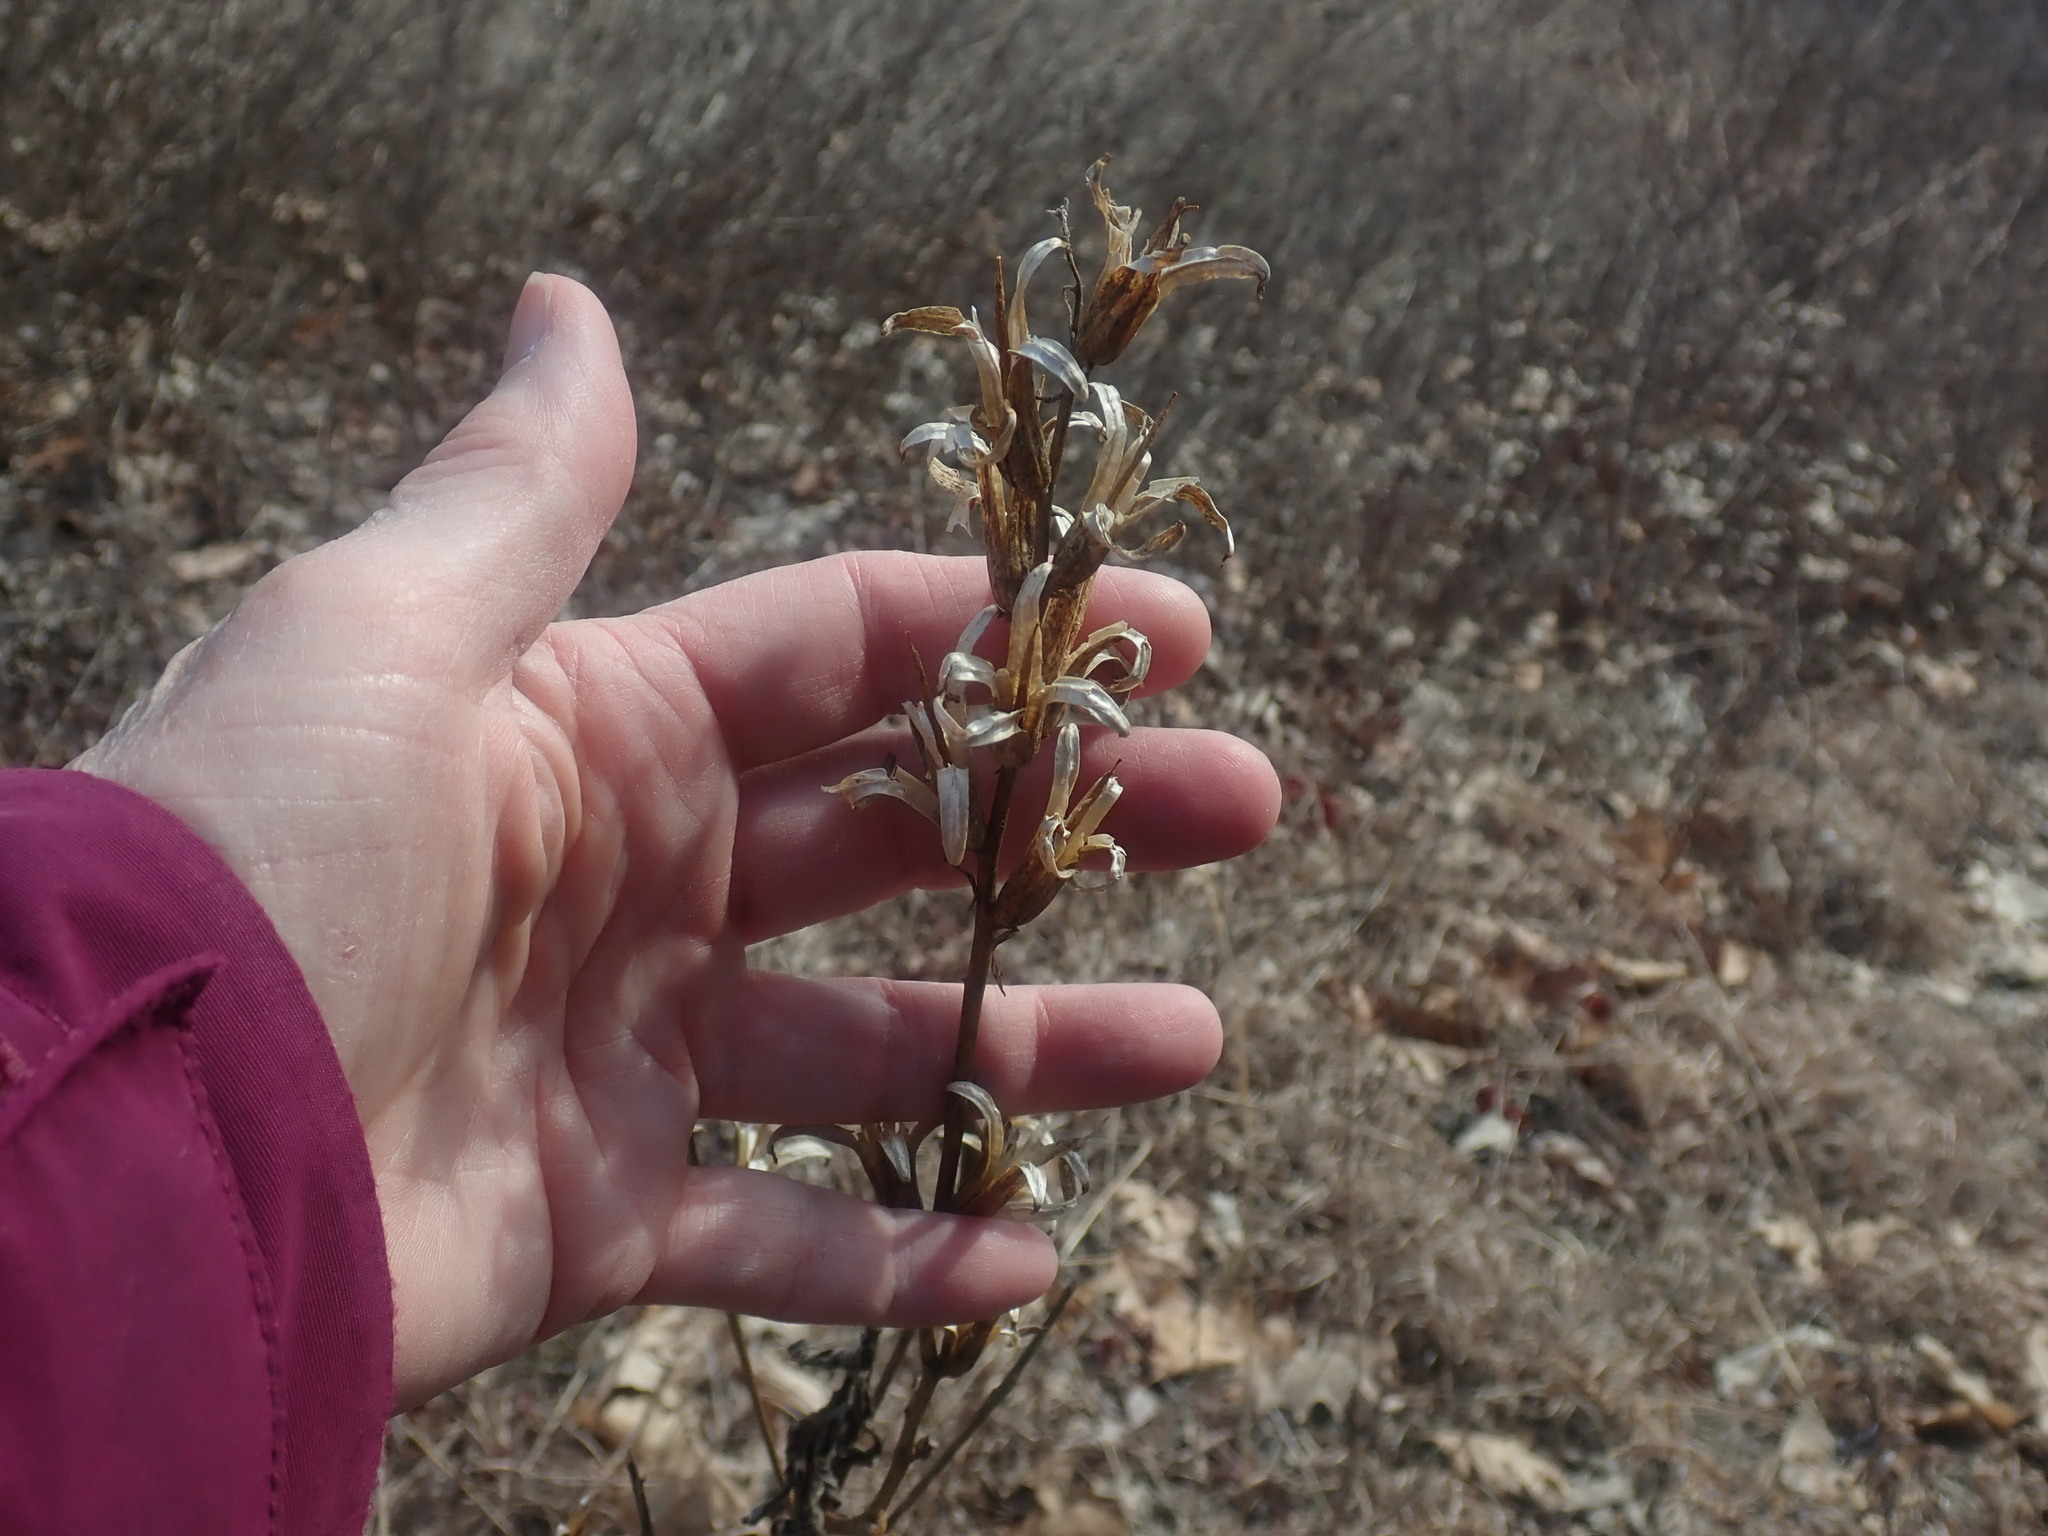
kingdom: Plantae
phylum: Tracheophyta
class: Magnoliopsida
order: Myrtales
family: Onagraceae
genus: Oenothera
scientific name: Oenothera biennis
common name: Common evening-primrose
